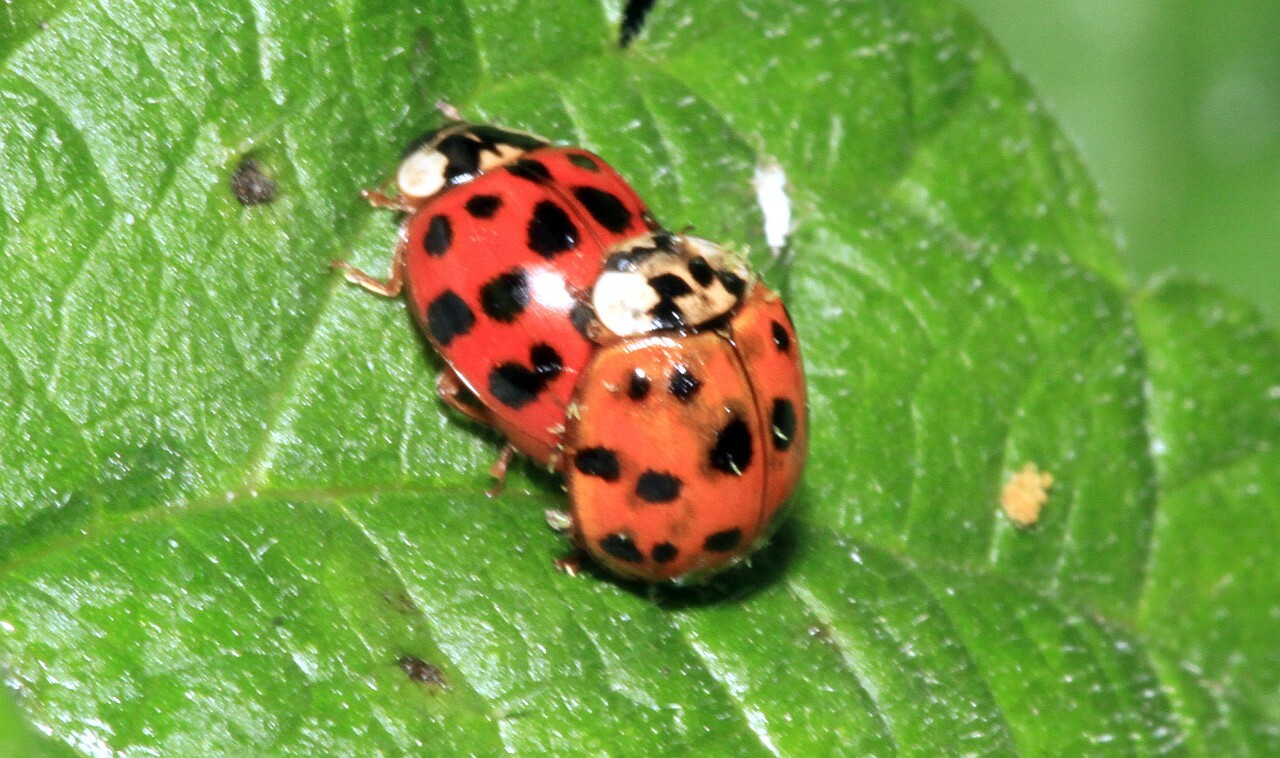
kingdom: Animalia
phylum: Arthropoda
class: Insecta
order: Coleoptera
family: Coccinellidae
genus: Harmonia
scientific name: Harmonia axyridis
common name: Harlequin ladybird
